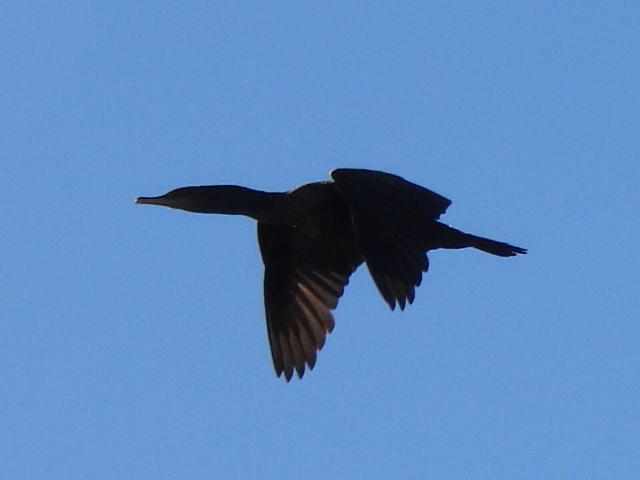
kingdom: Animalia
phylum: Chordata
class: Aves
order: Suliformes
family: Phalacrocoracidae
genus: Phalacrocorax
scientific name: Phalacrocorax auritus
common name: Double-crested cormorant
